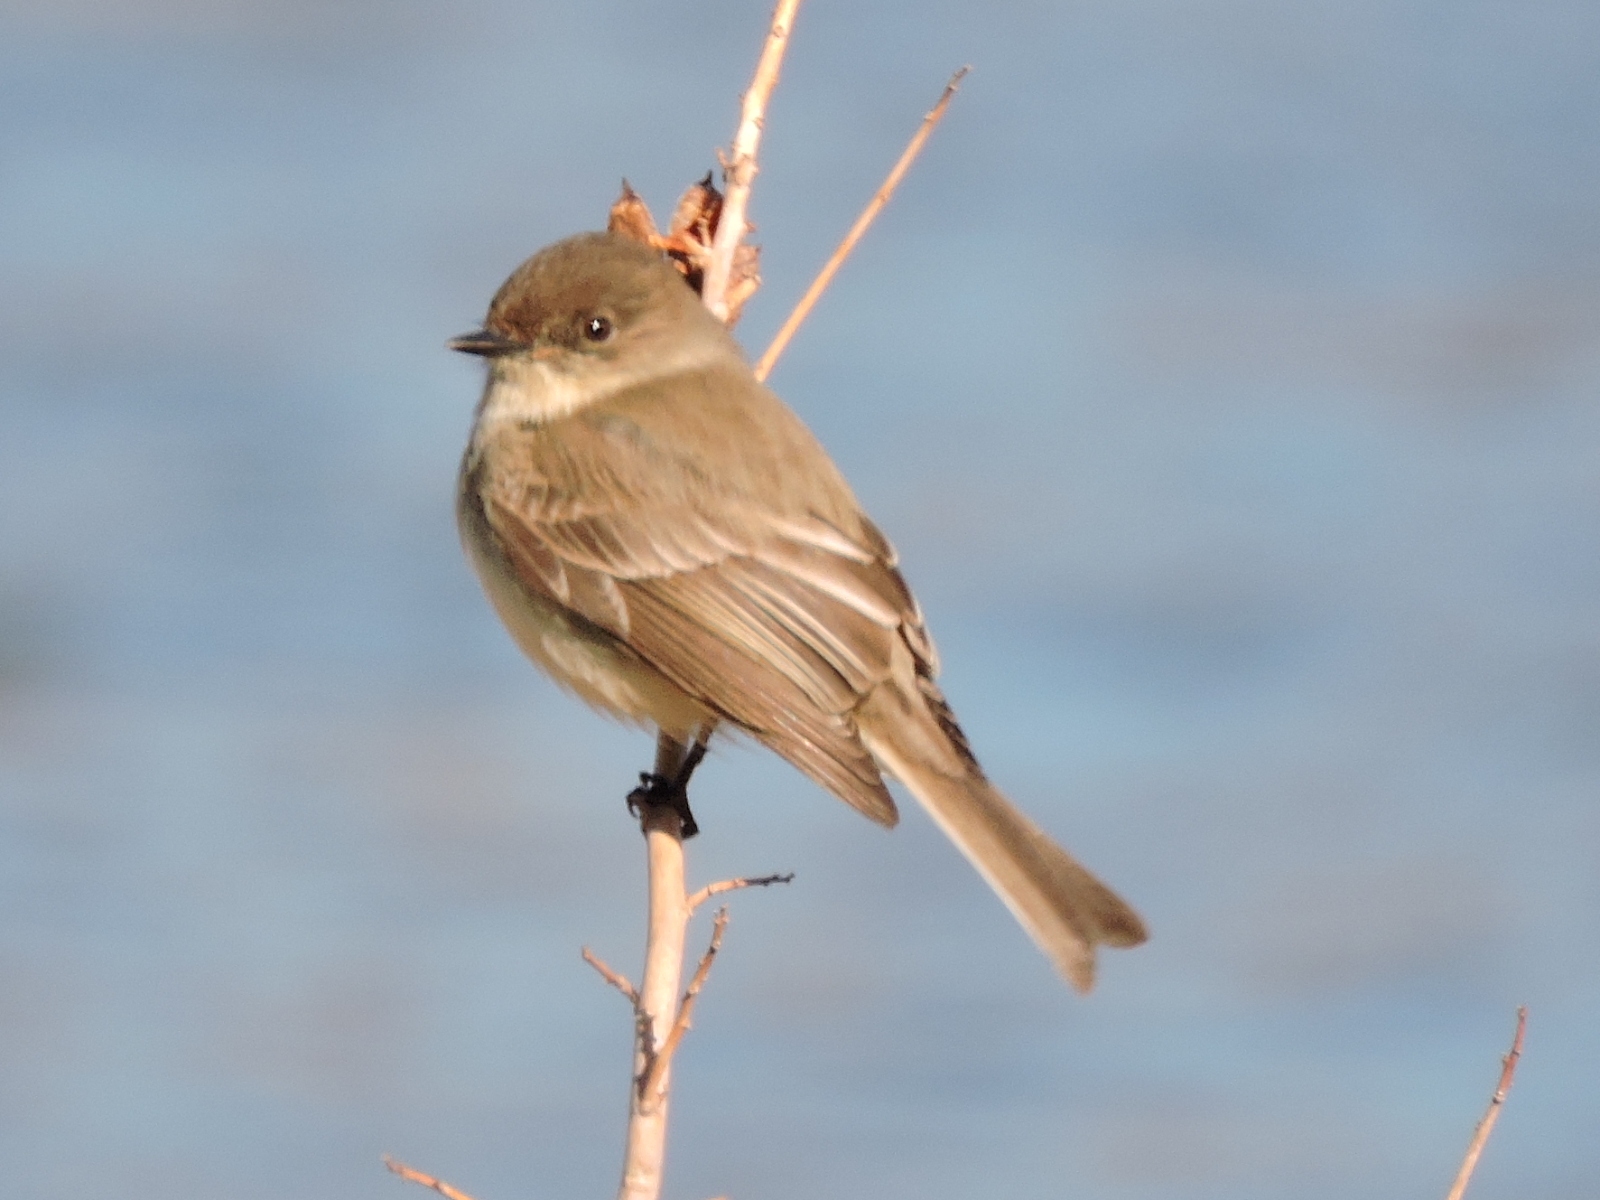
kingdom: Animalia
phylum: Chordata
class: Aves
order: Passeriformes
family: Tyrannidae
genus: Sayornis
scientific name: Sayornis phoebe
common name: Eastern phoebe
